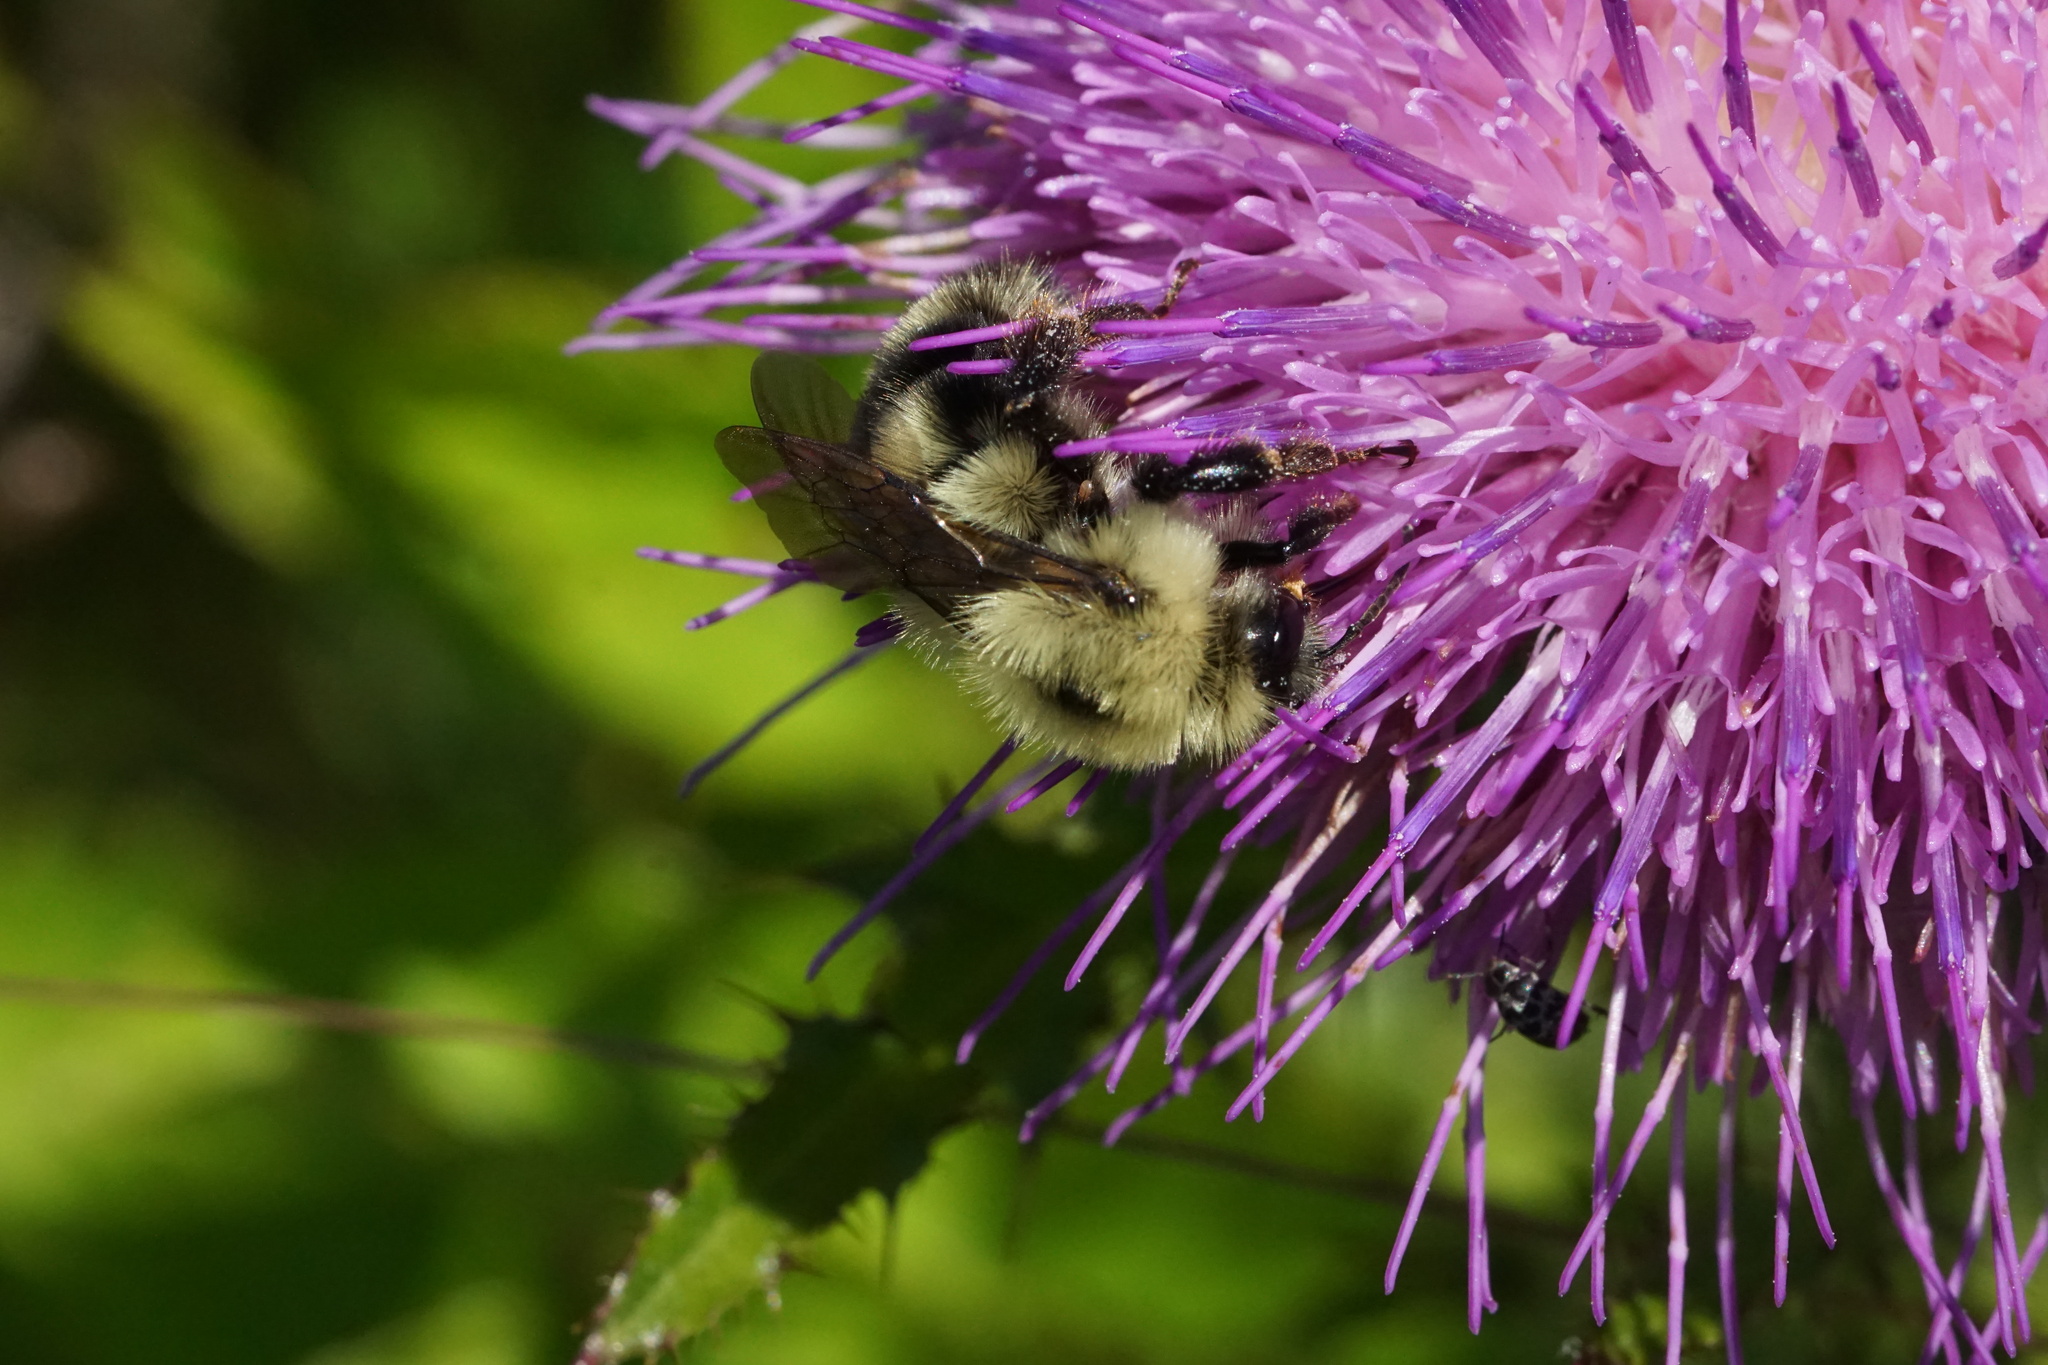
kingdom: Animalia
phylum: Arthropoda
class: Insecta
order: Hymenoptera
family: Apidae
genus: Bombus
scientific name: Bombus bimaculatus
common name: Two-spotted bumble bee
